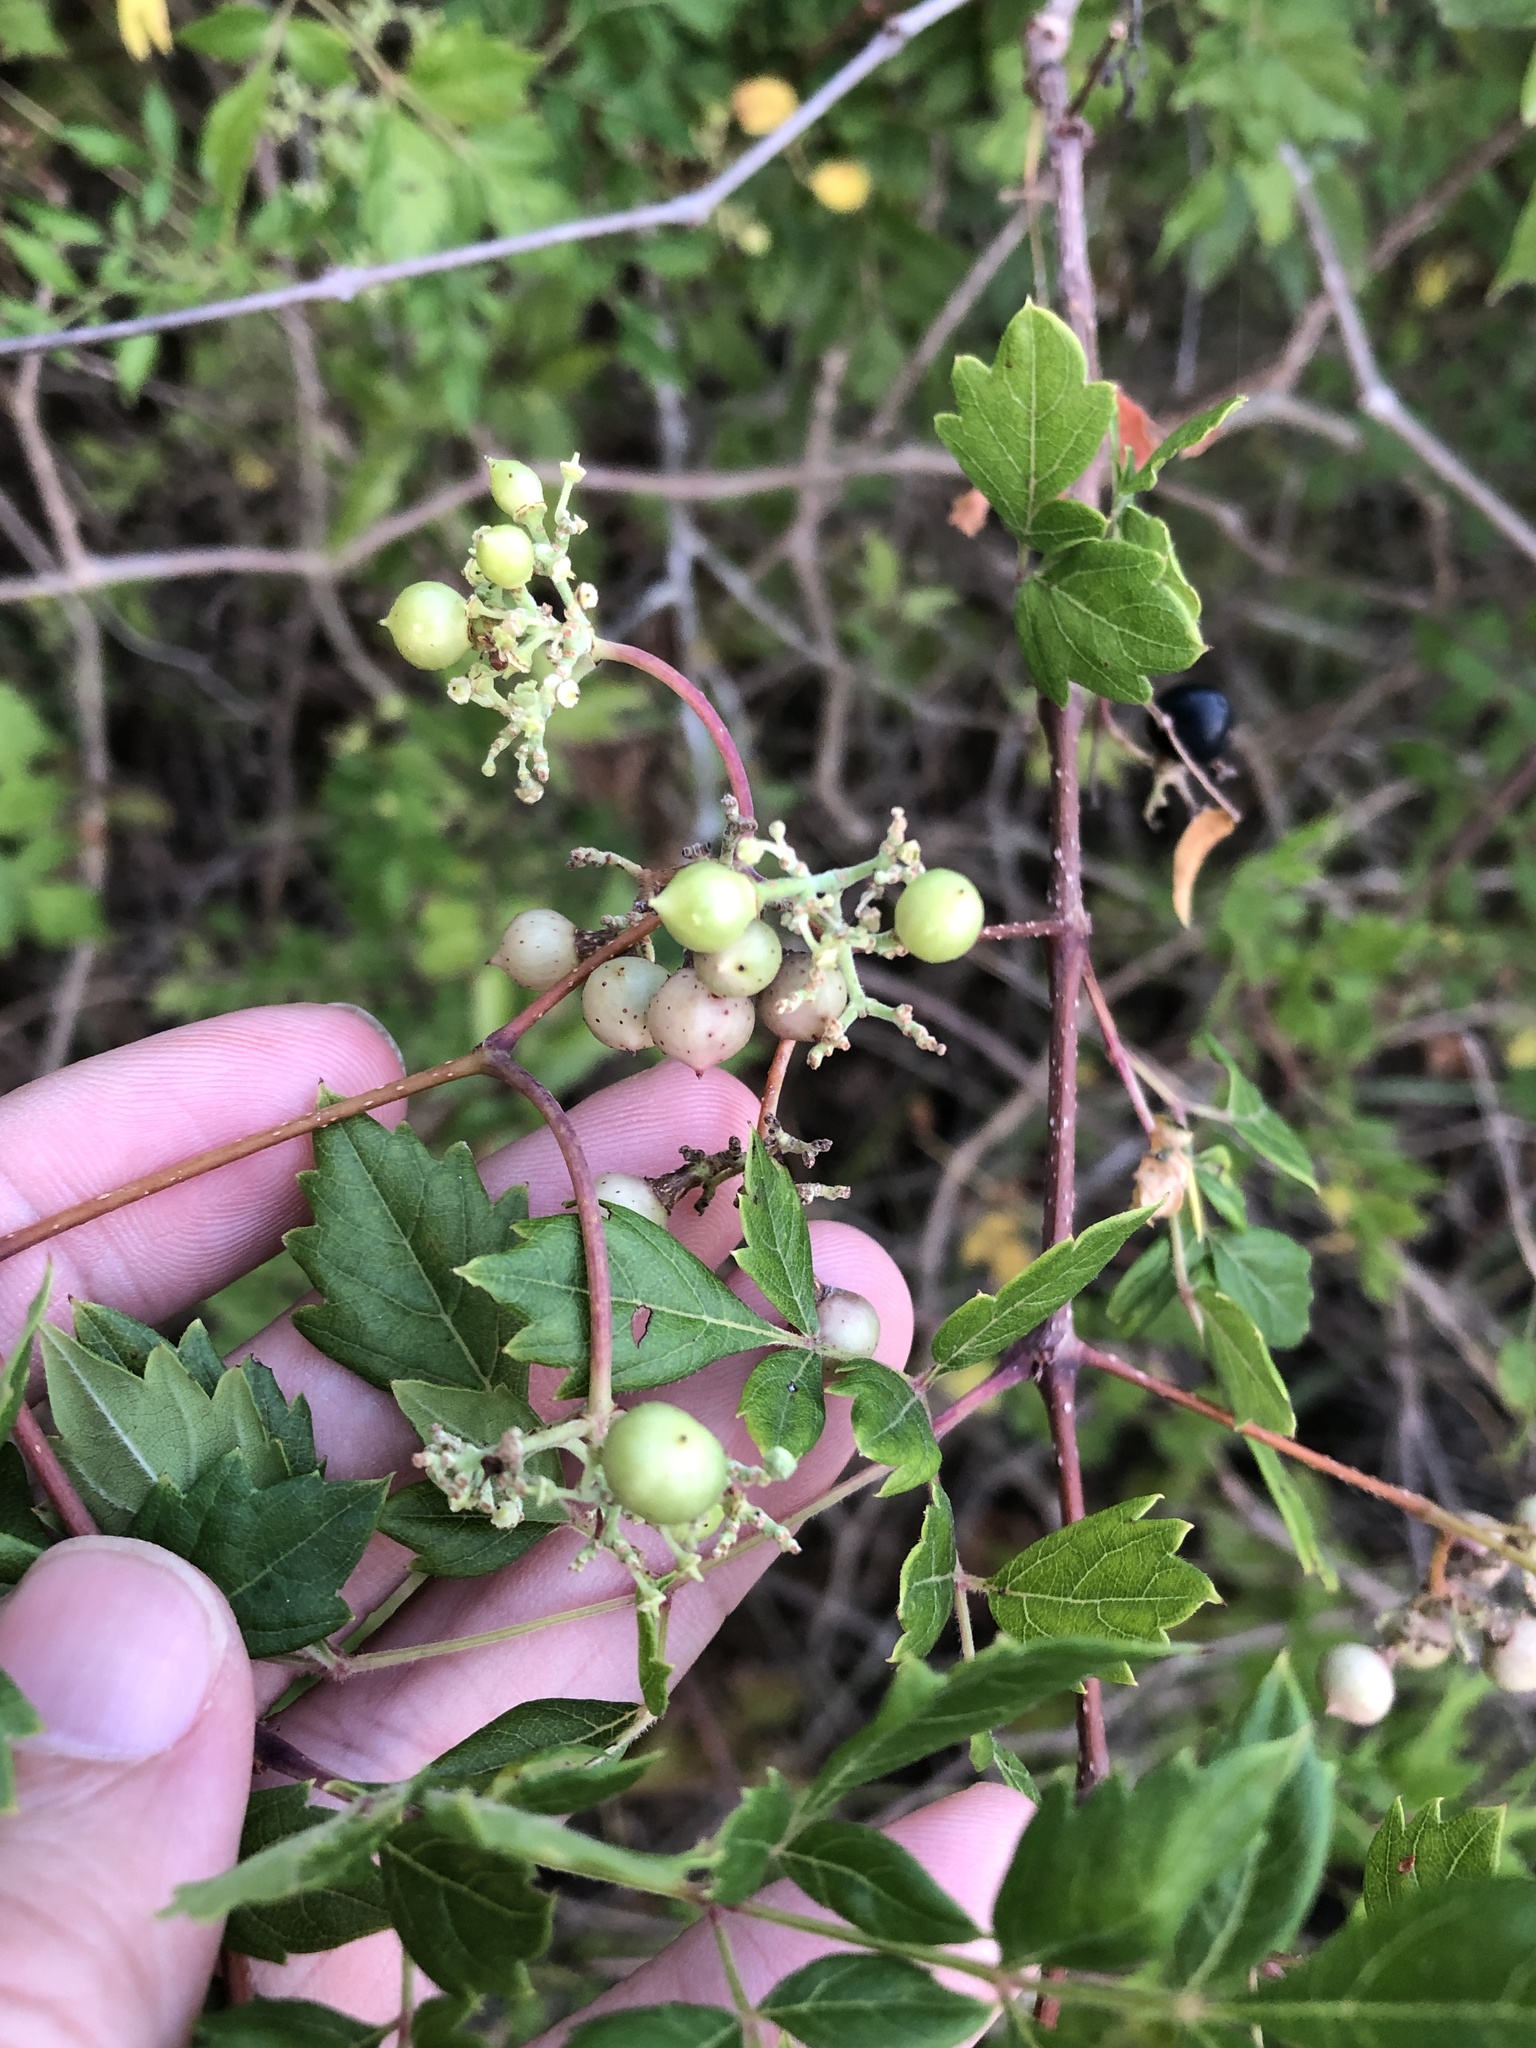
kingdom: Plantae
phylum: Tracheophyta
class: Magnoliopsida
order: Vitales
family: Vitaceae
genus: Nekemias
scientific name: Nekemias arborea
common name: Peppervine
